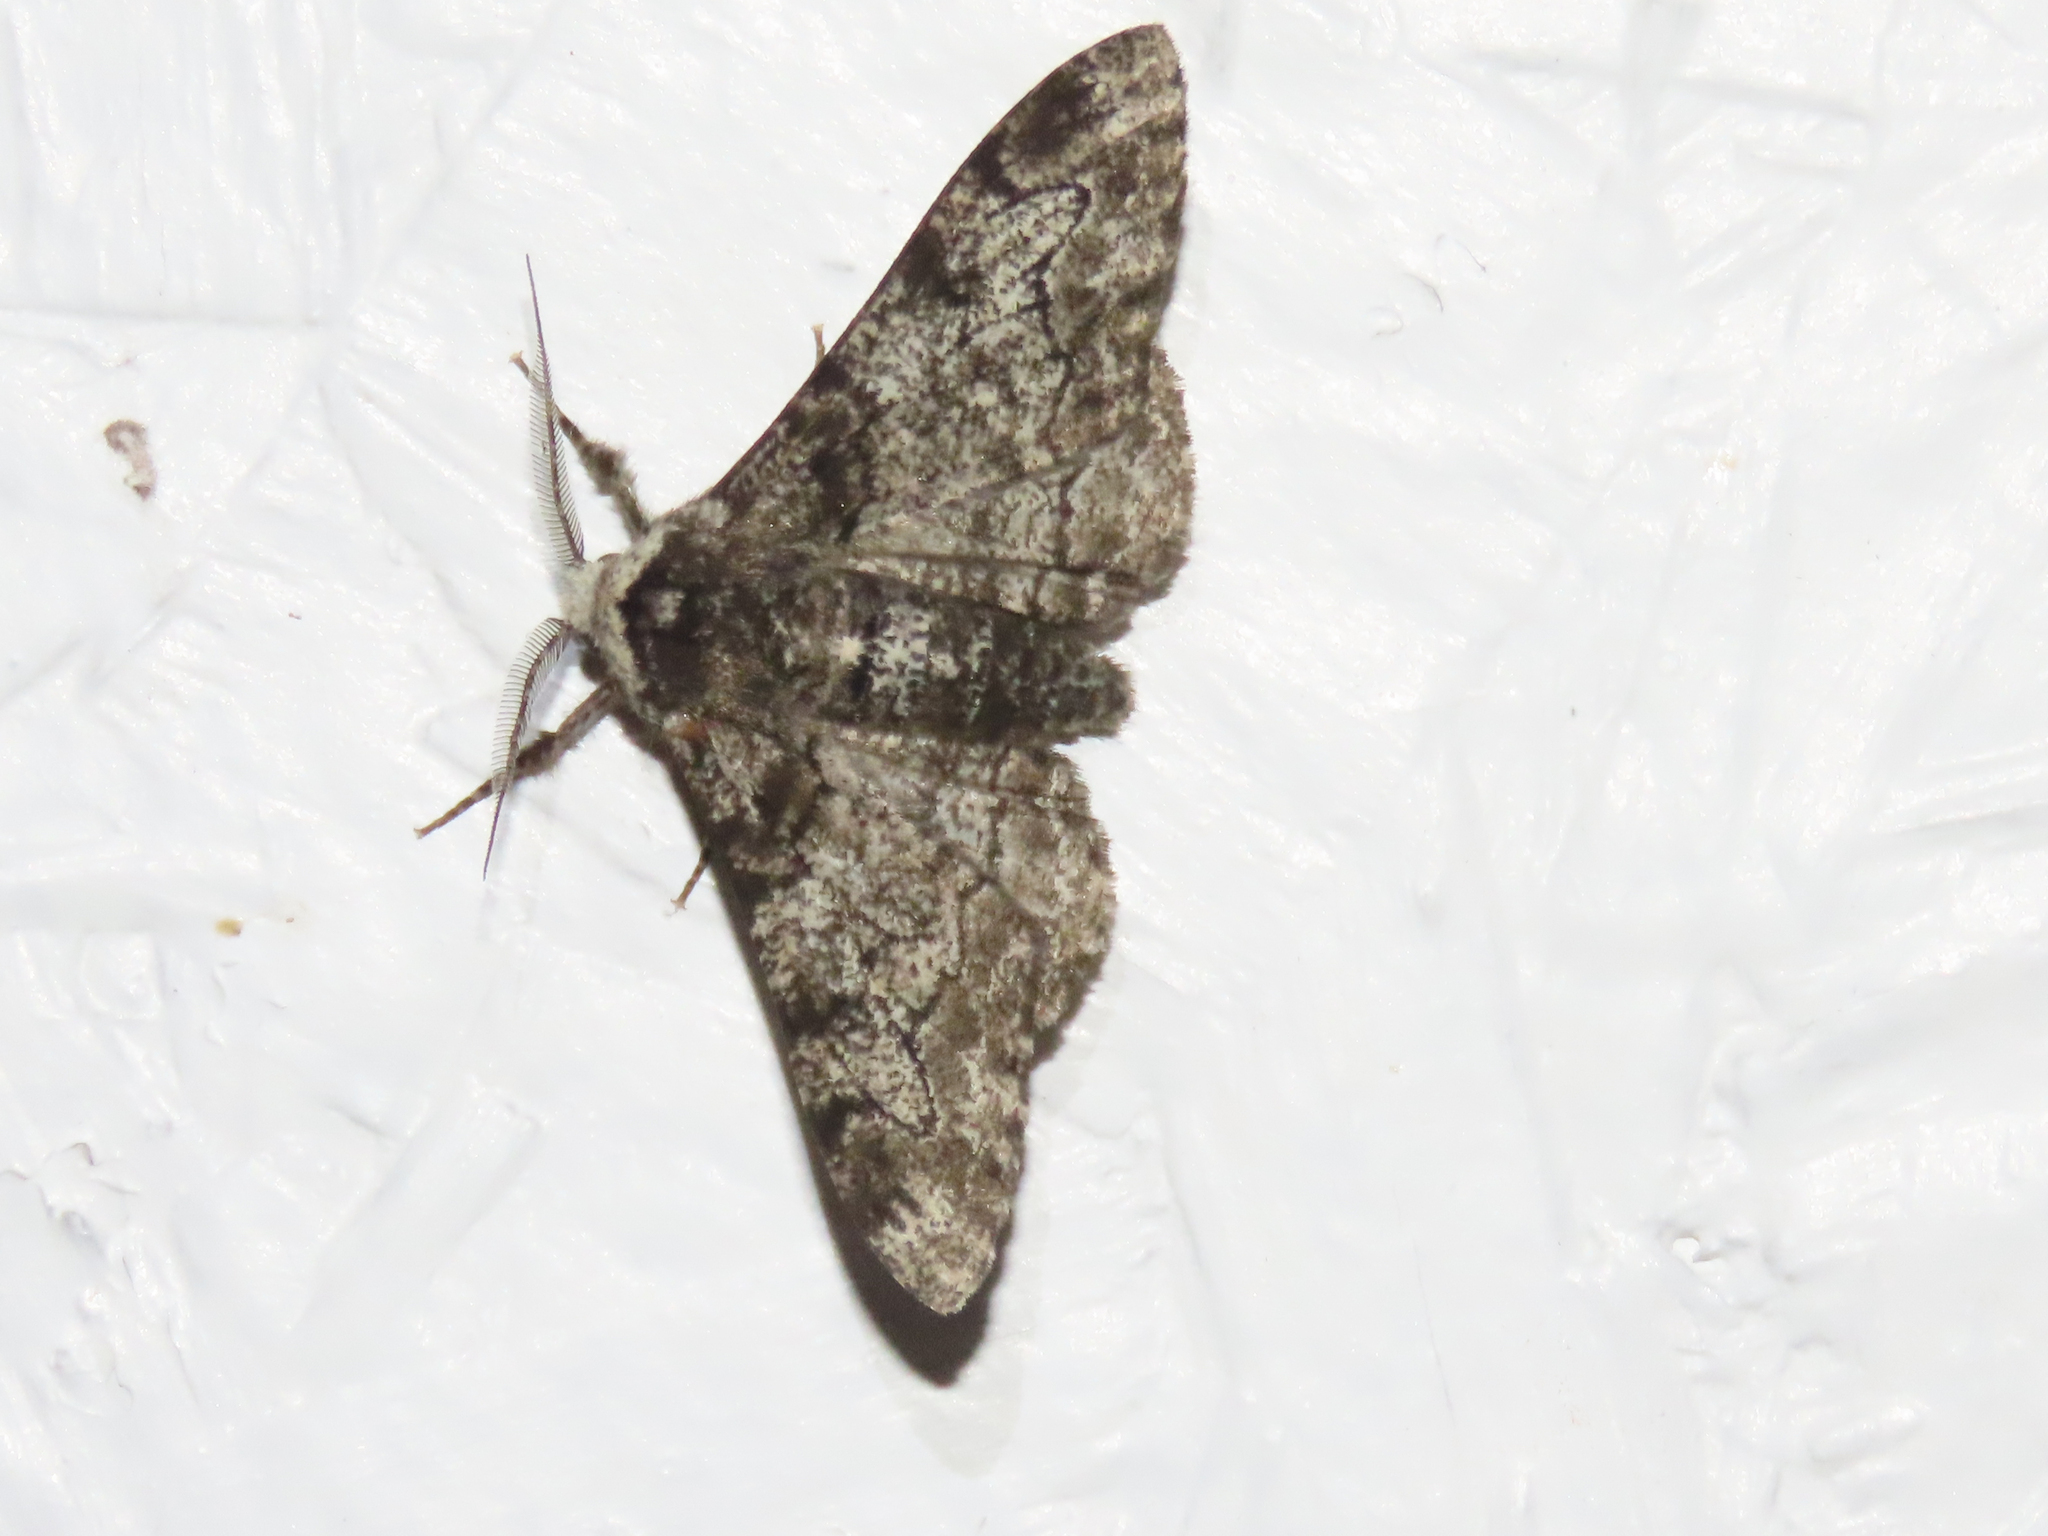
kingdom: Animalia
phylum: Arthropoda
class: Insecta
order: Lepidoptera
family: Geometridae
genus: Biston
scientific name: Biston betularia
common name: Peppered moth
